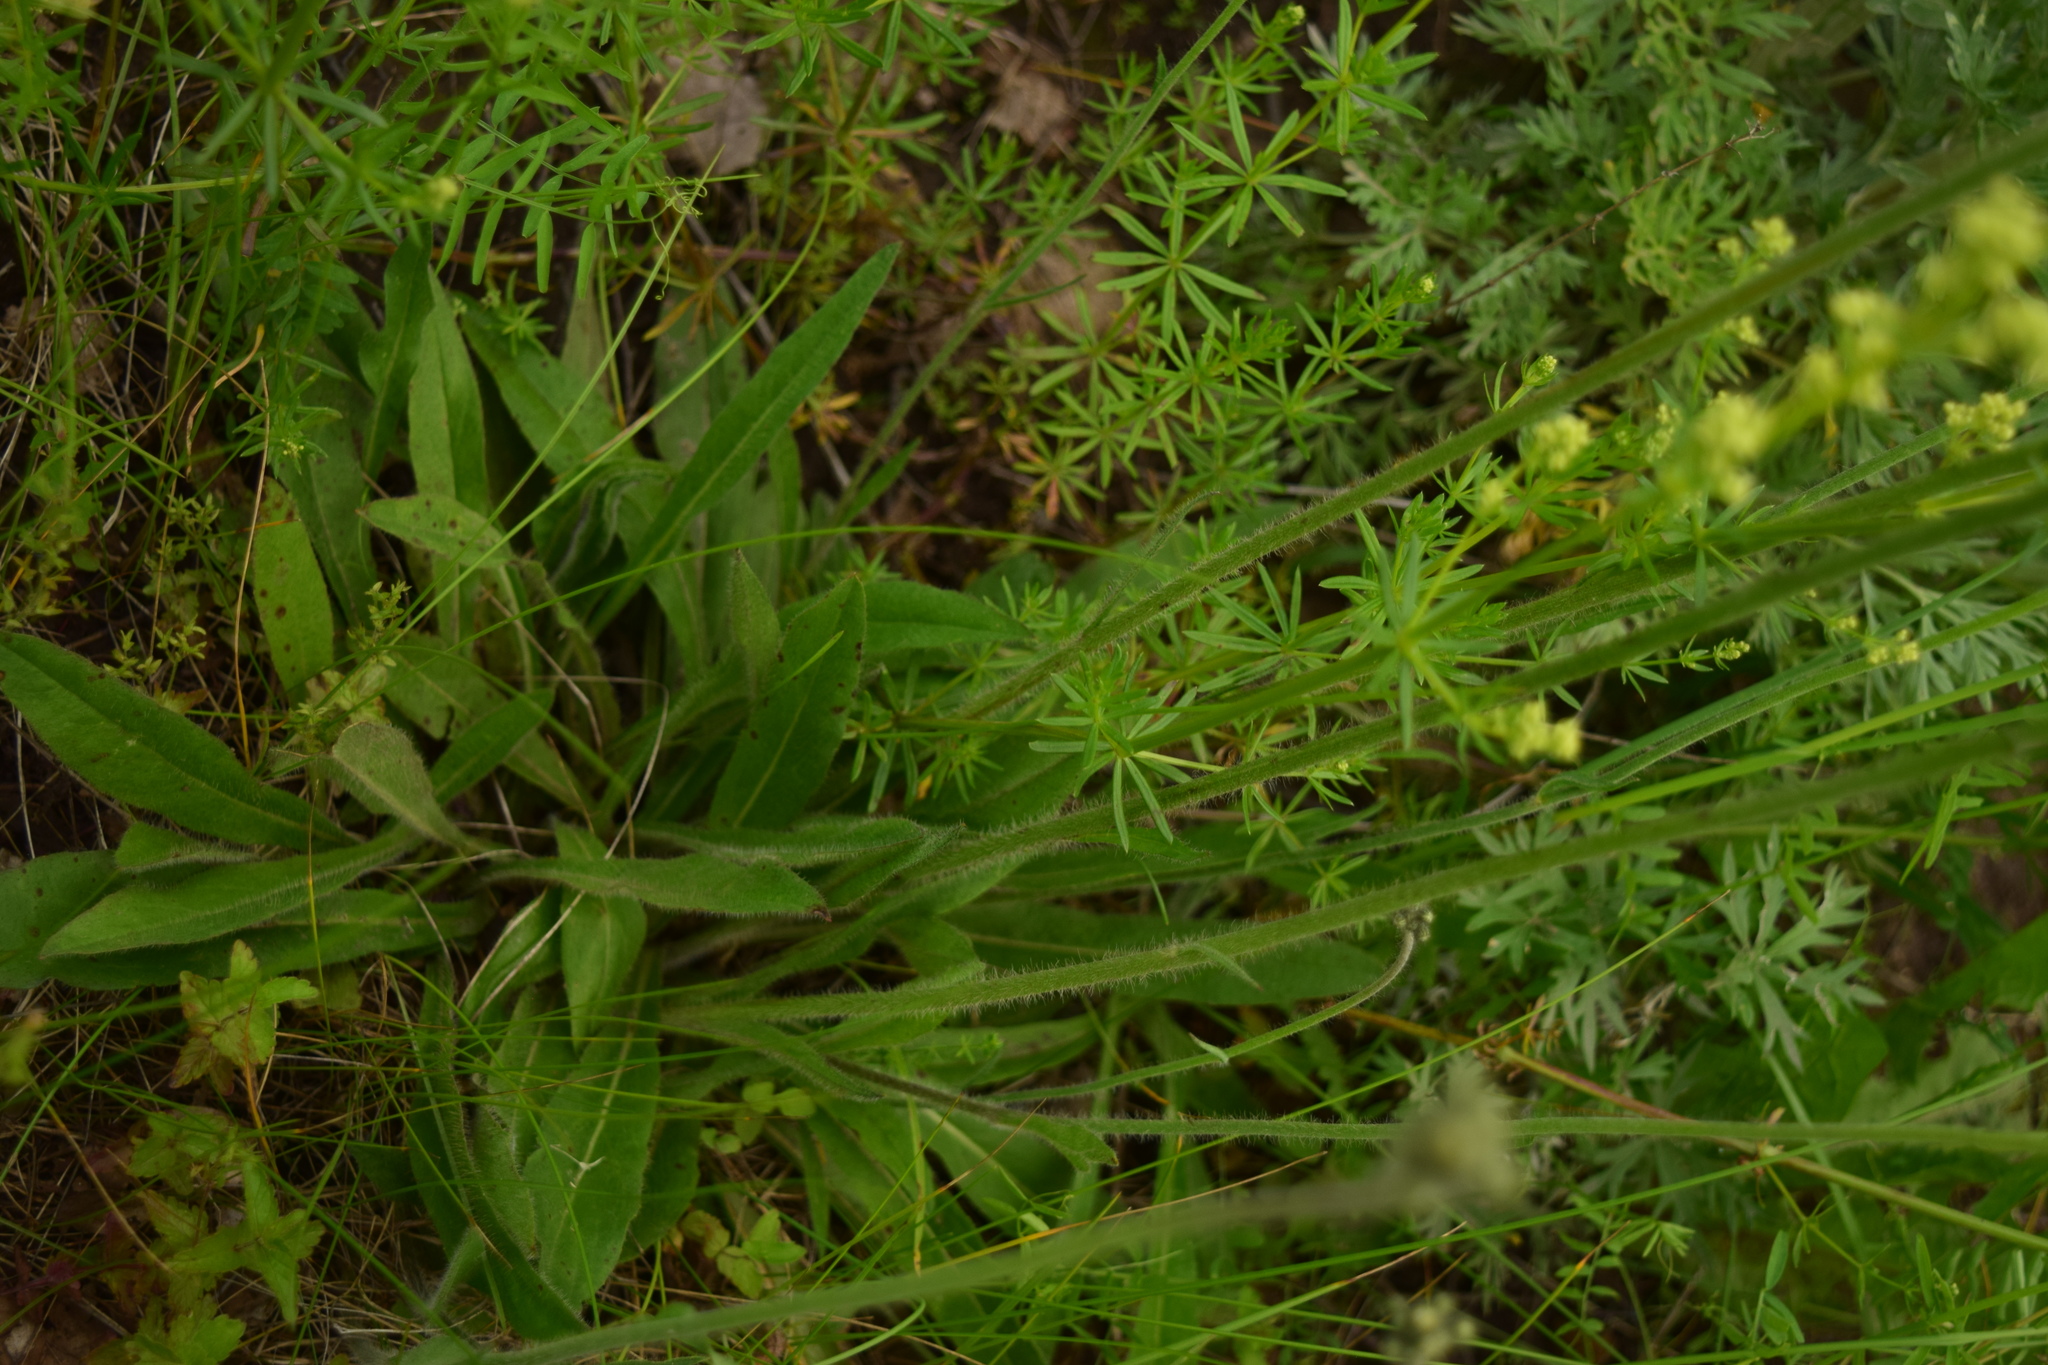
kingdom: Plantae
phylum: Tracheophyta
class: Magnoliopsida
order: Asterales
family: Asteraceae
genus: Pilosella
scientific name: Pilosella
